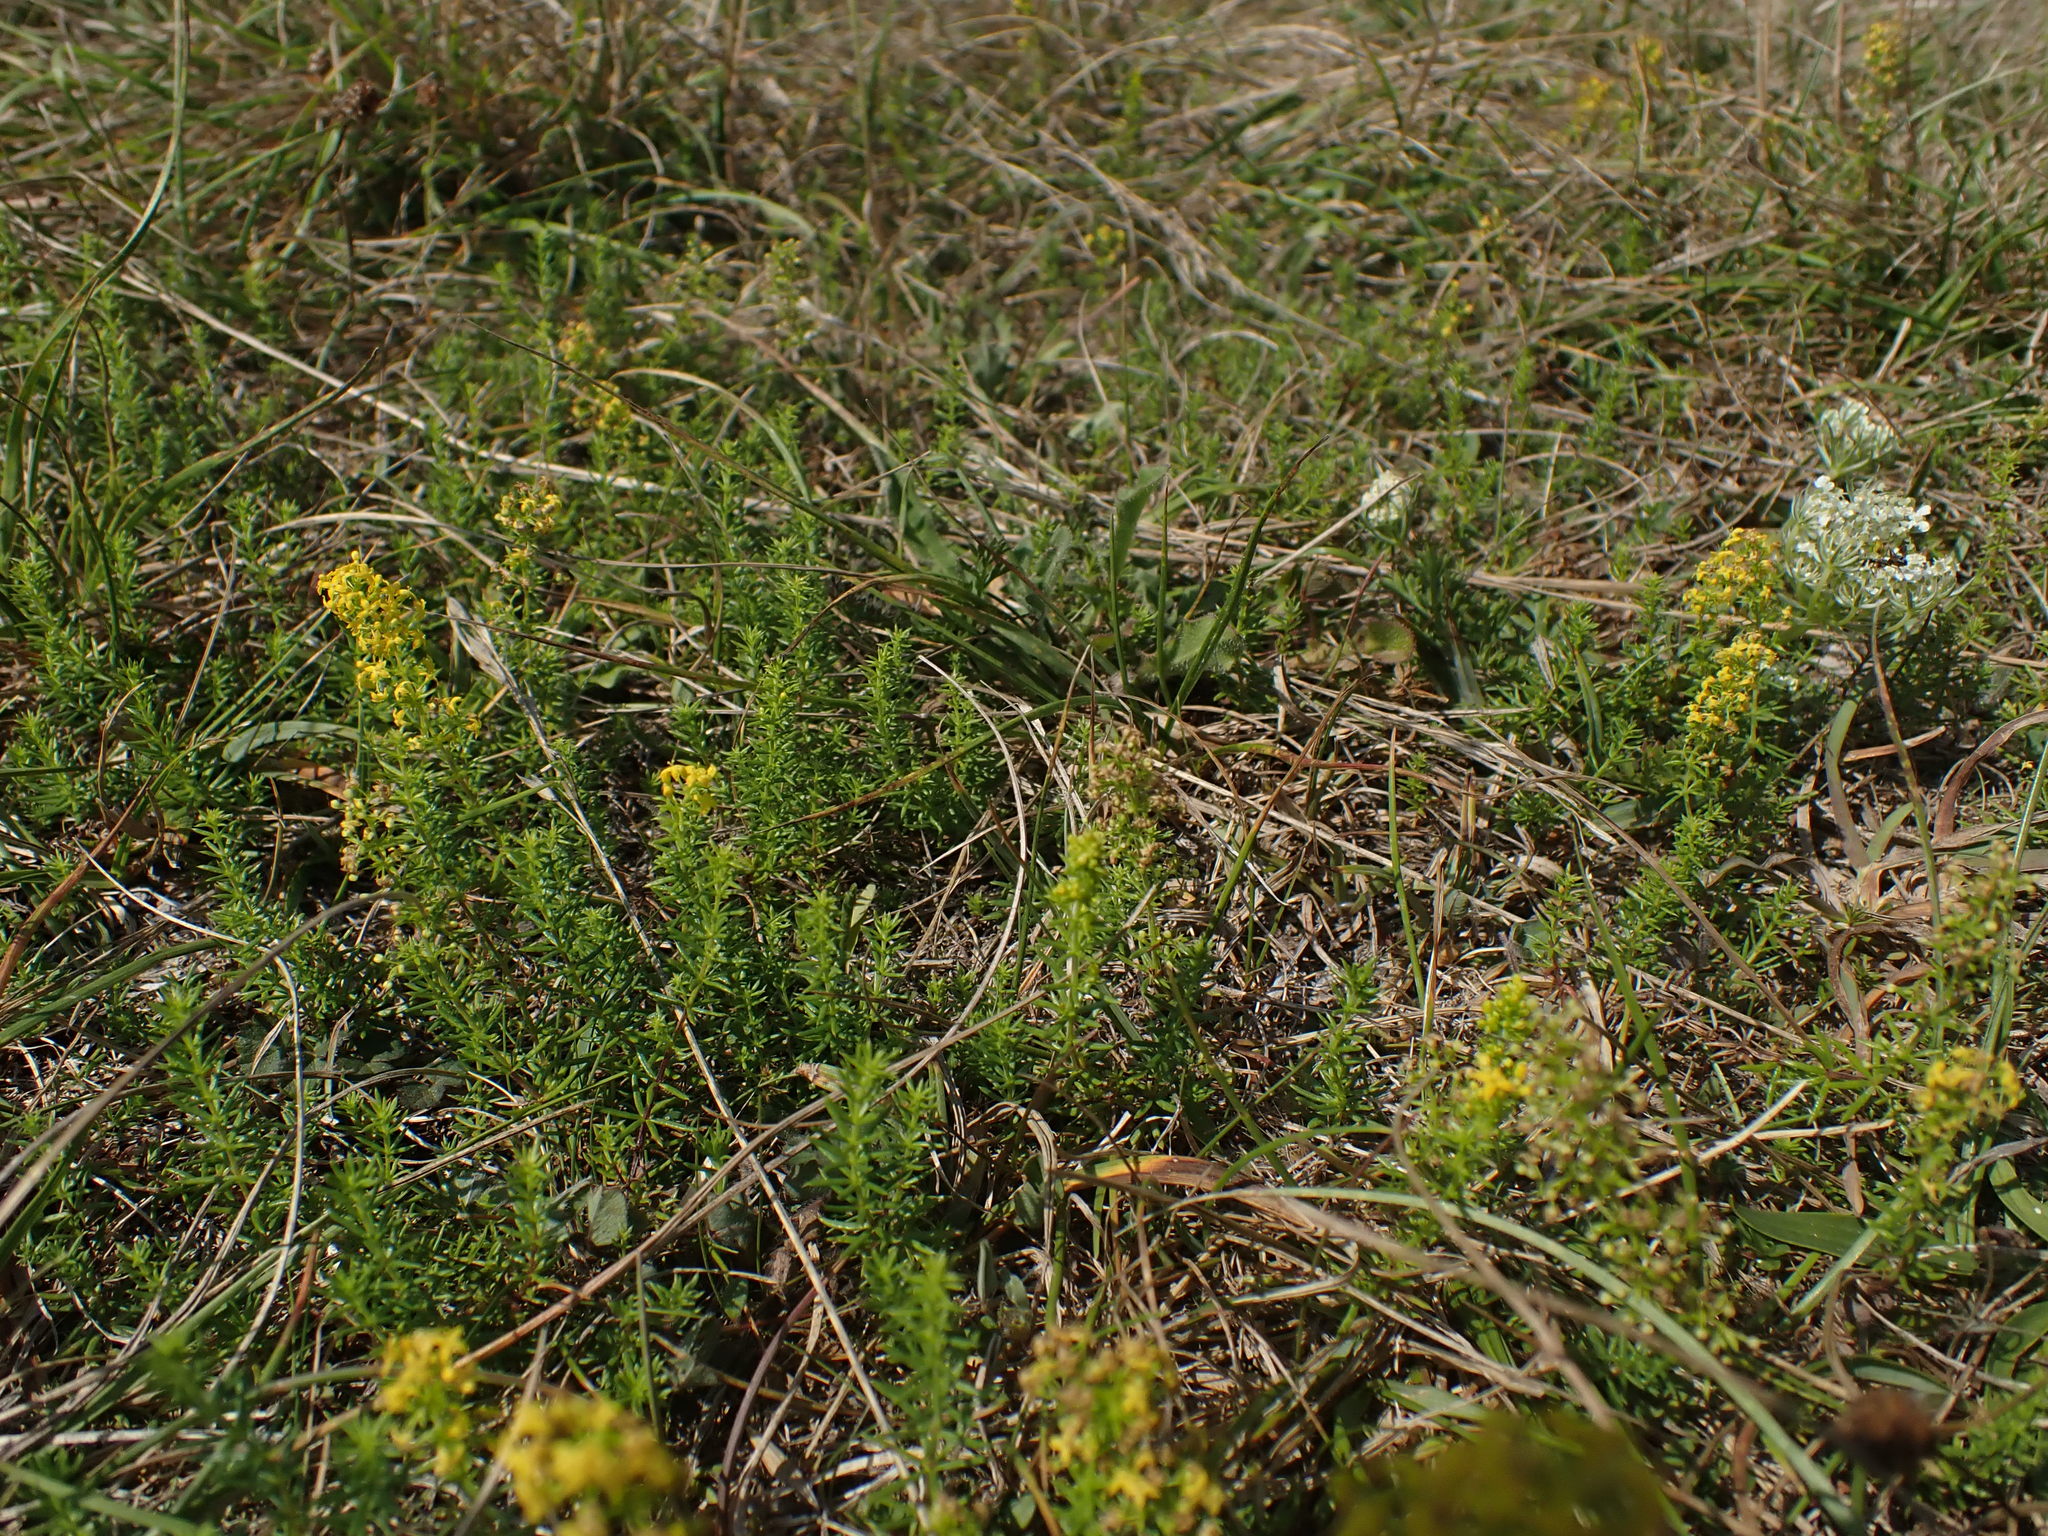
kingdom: Plantae
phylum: Tracheophyta
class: Magnoliopsida
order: Gentianales
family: Rubiaceae
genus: Galium
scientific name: Galium verum
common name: Lady's bedstraw
